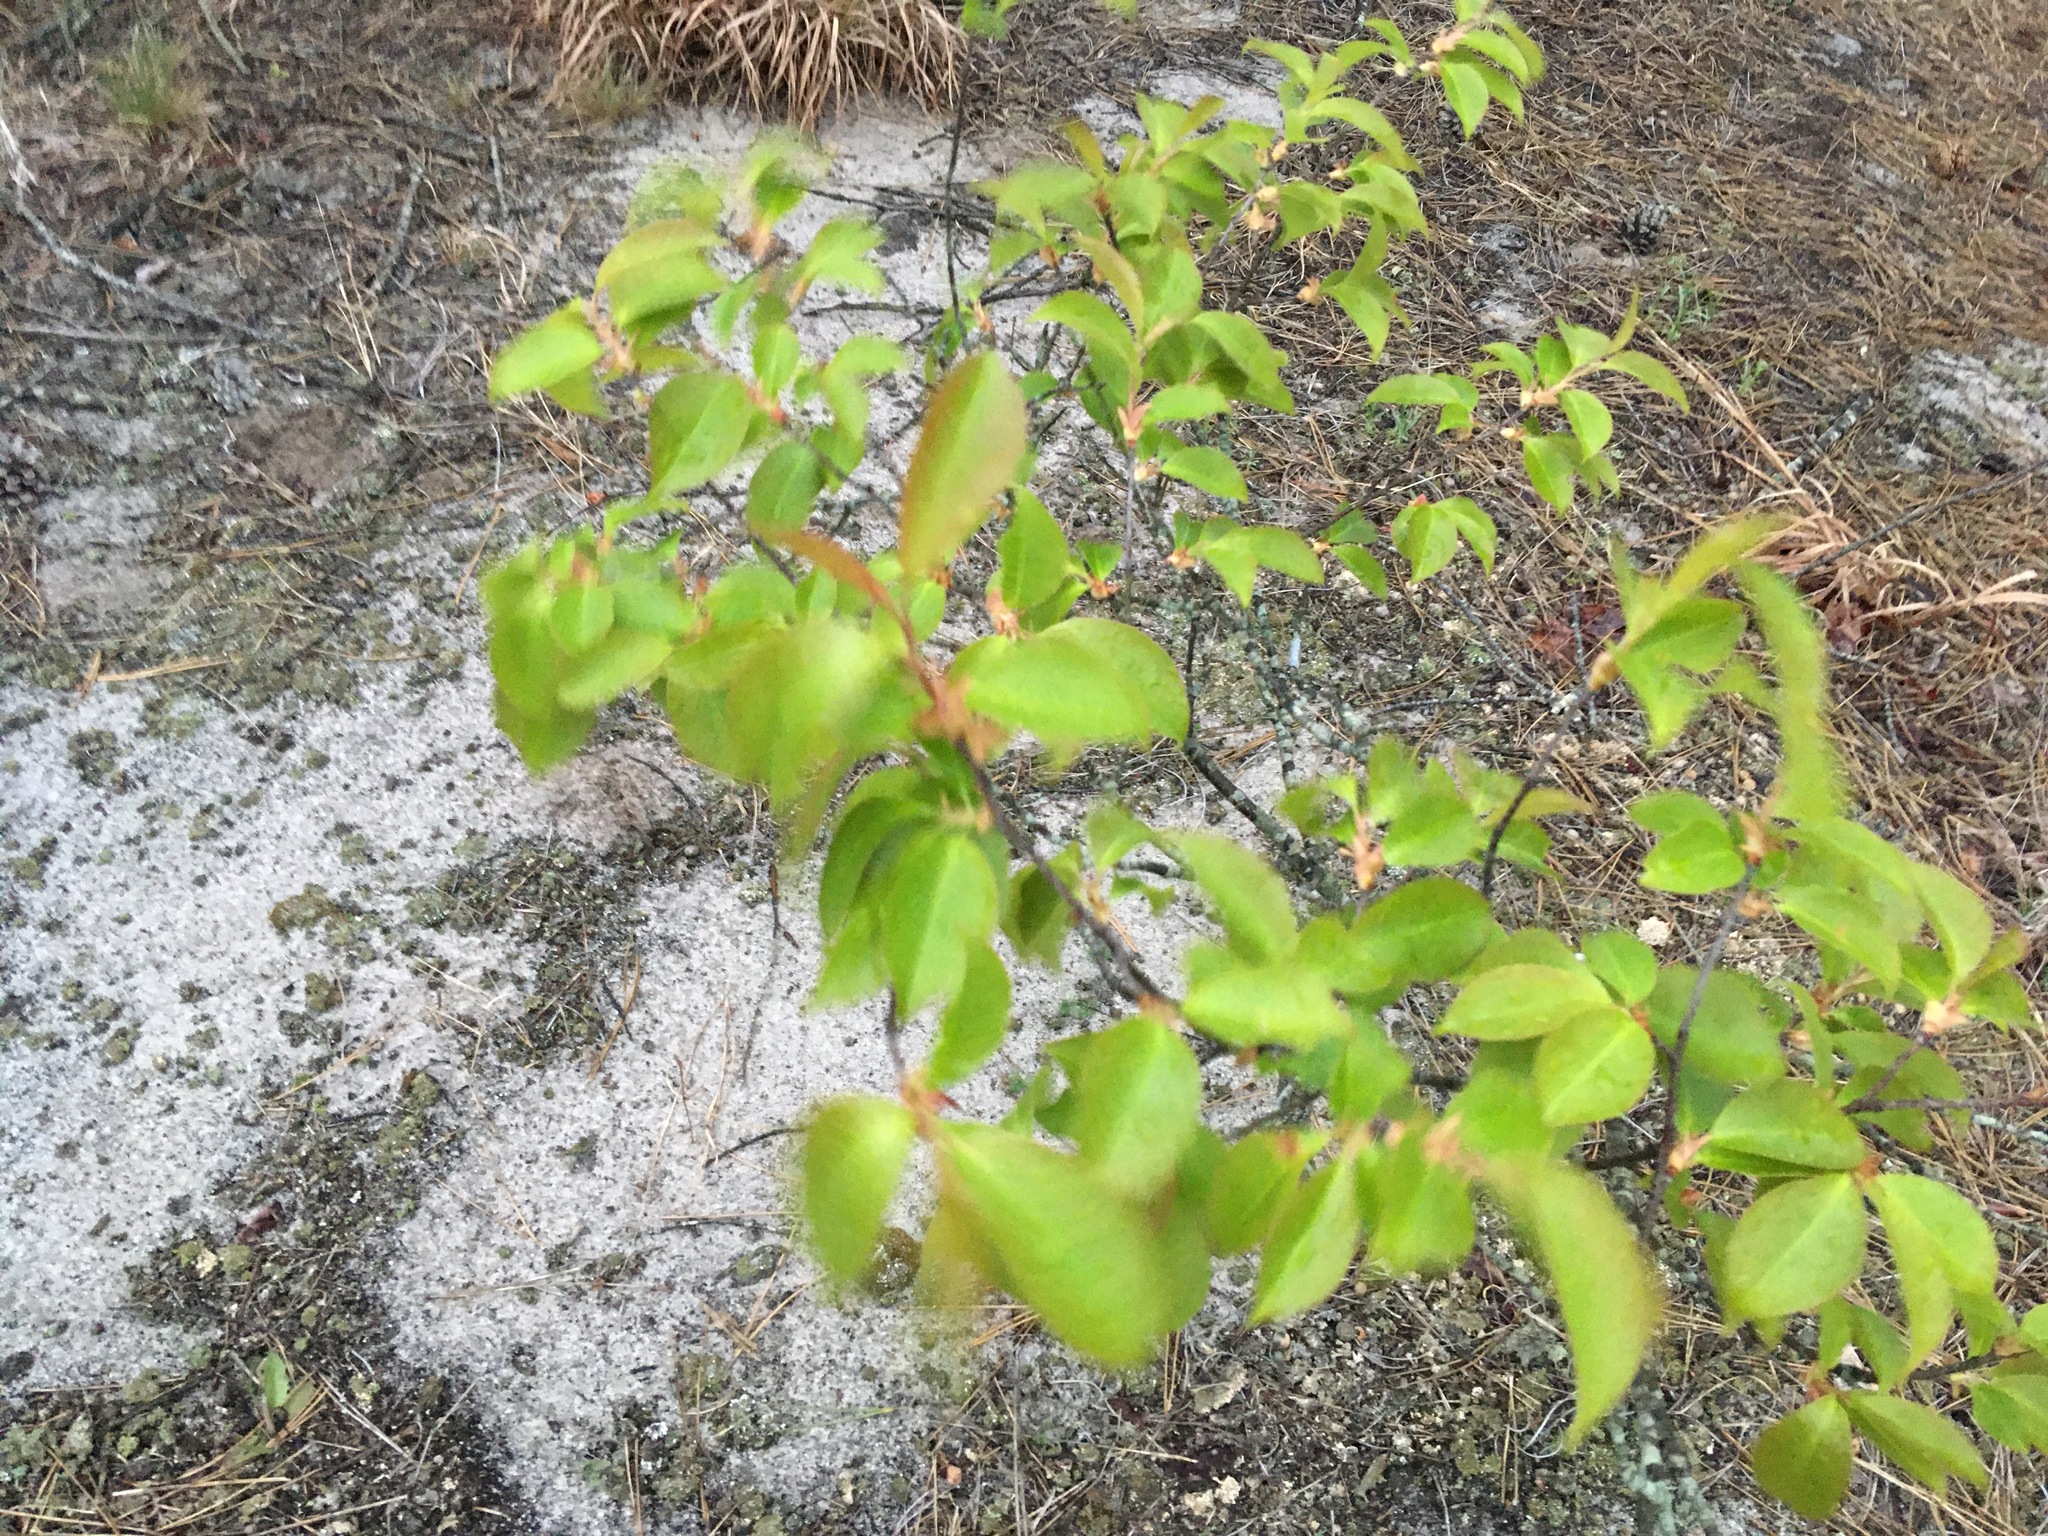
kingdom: Plantae
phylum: Tracheophyta
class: Magnoliopsida
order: Rosales
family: Rosaceae
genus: Prunus
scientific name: Prunus maritima
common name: Beach plum
